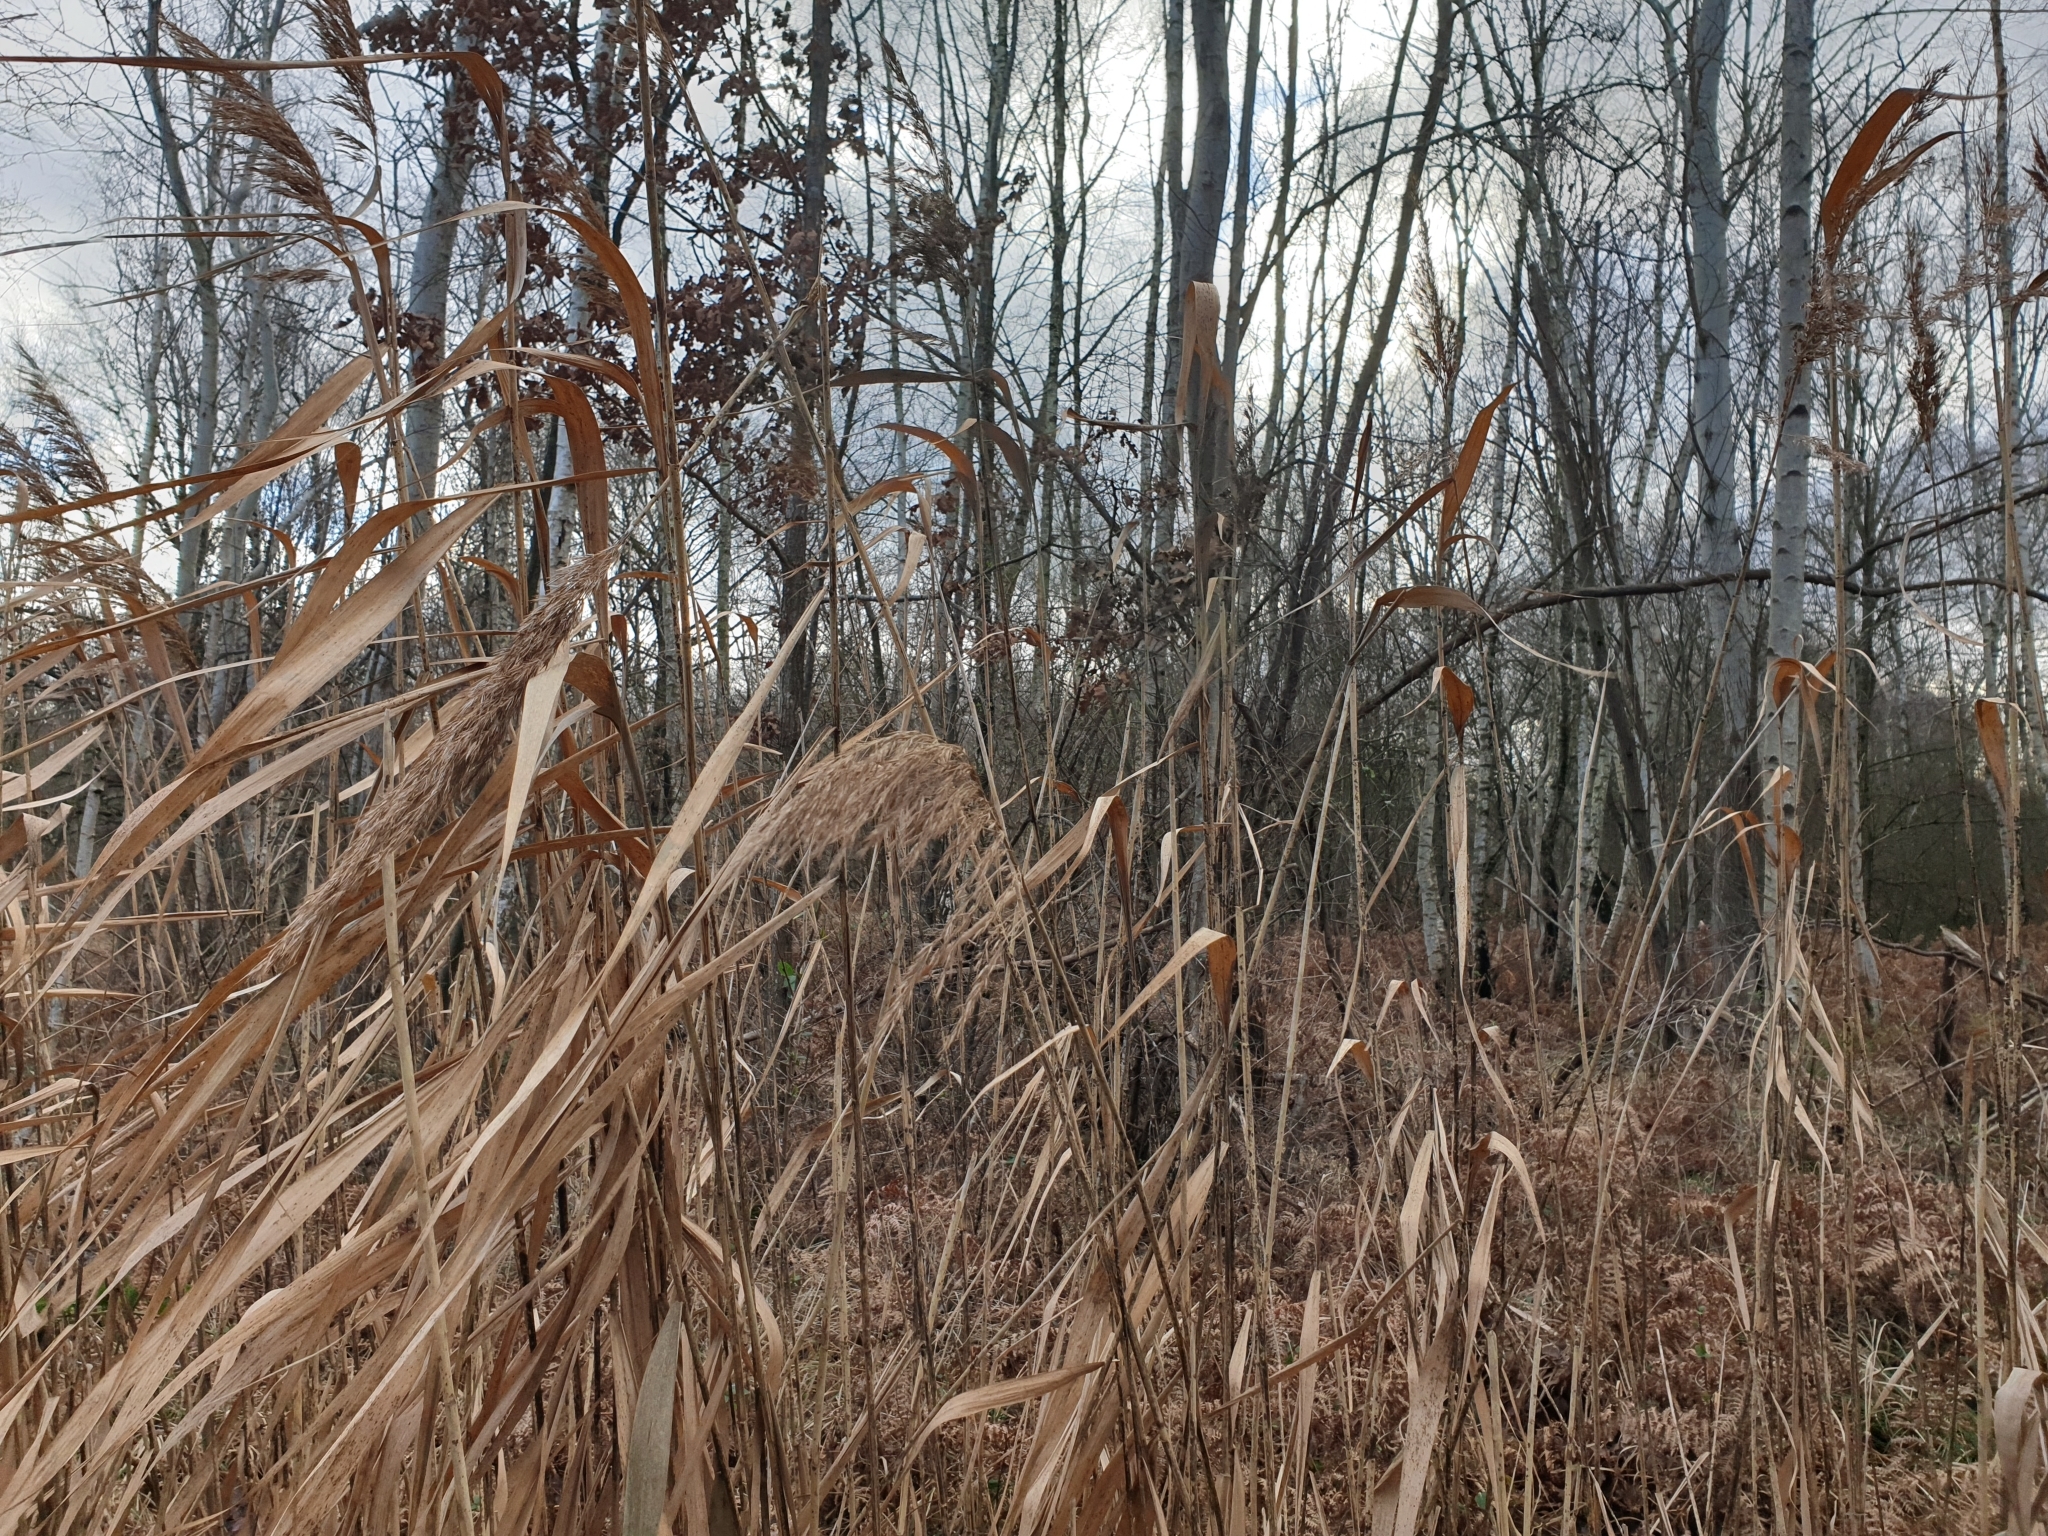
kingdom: Plantae
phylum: Tracheophyta
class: Liliopsida
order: Poales
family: Poaceae
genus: Phragmites
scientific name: Phragmites australis
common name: Common reed
